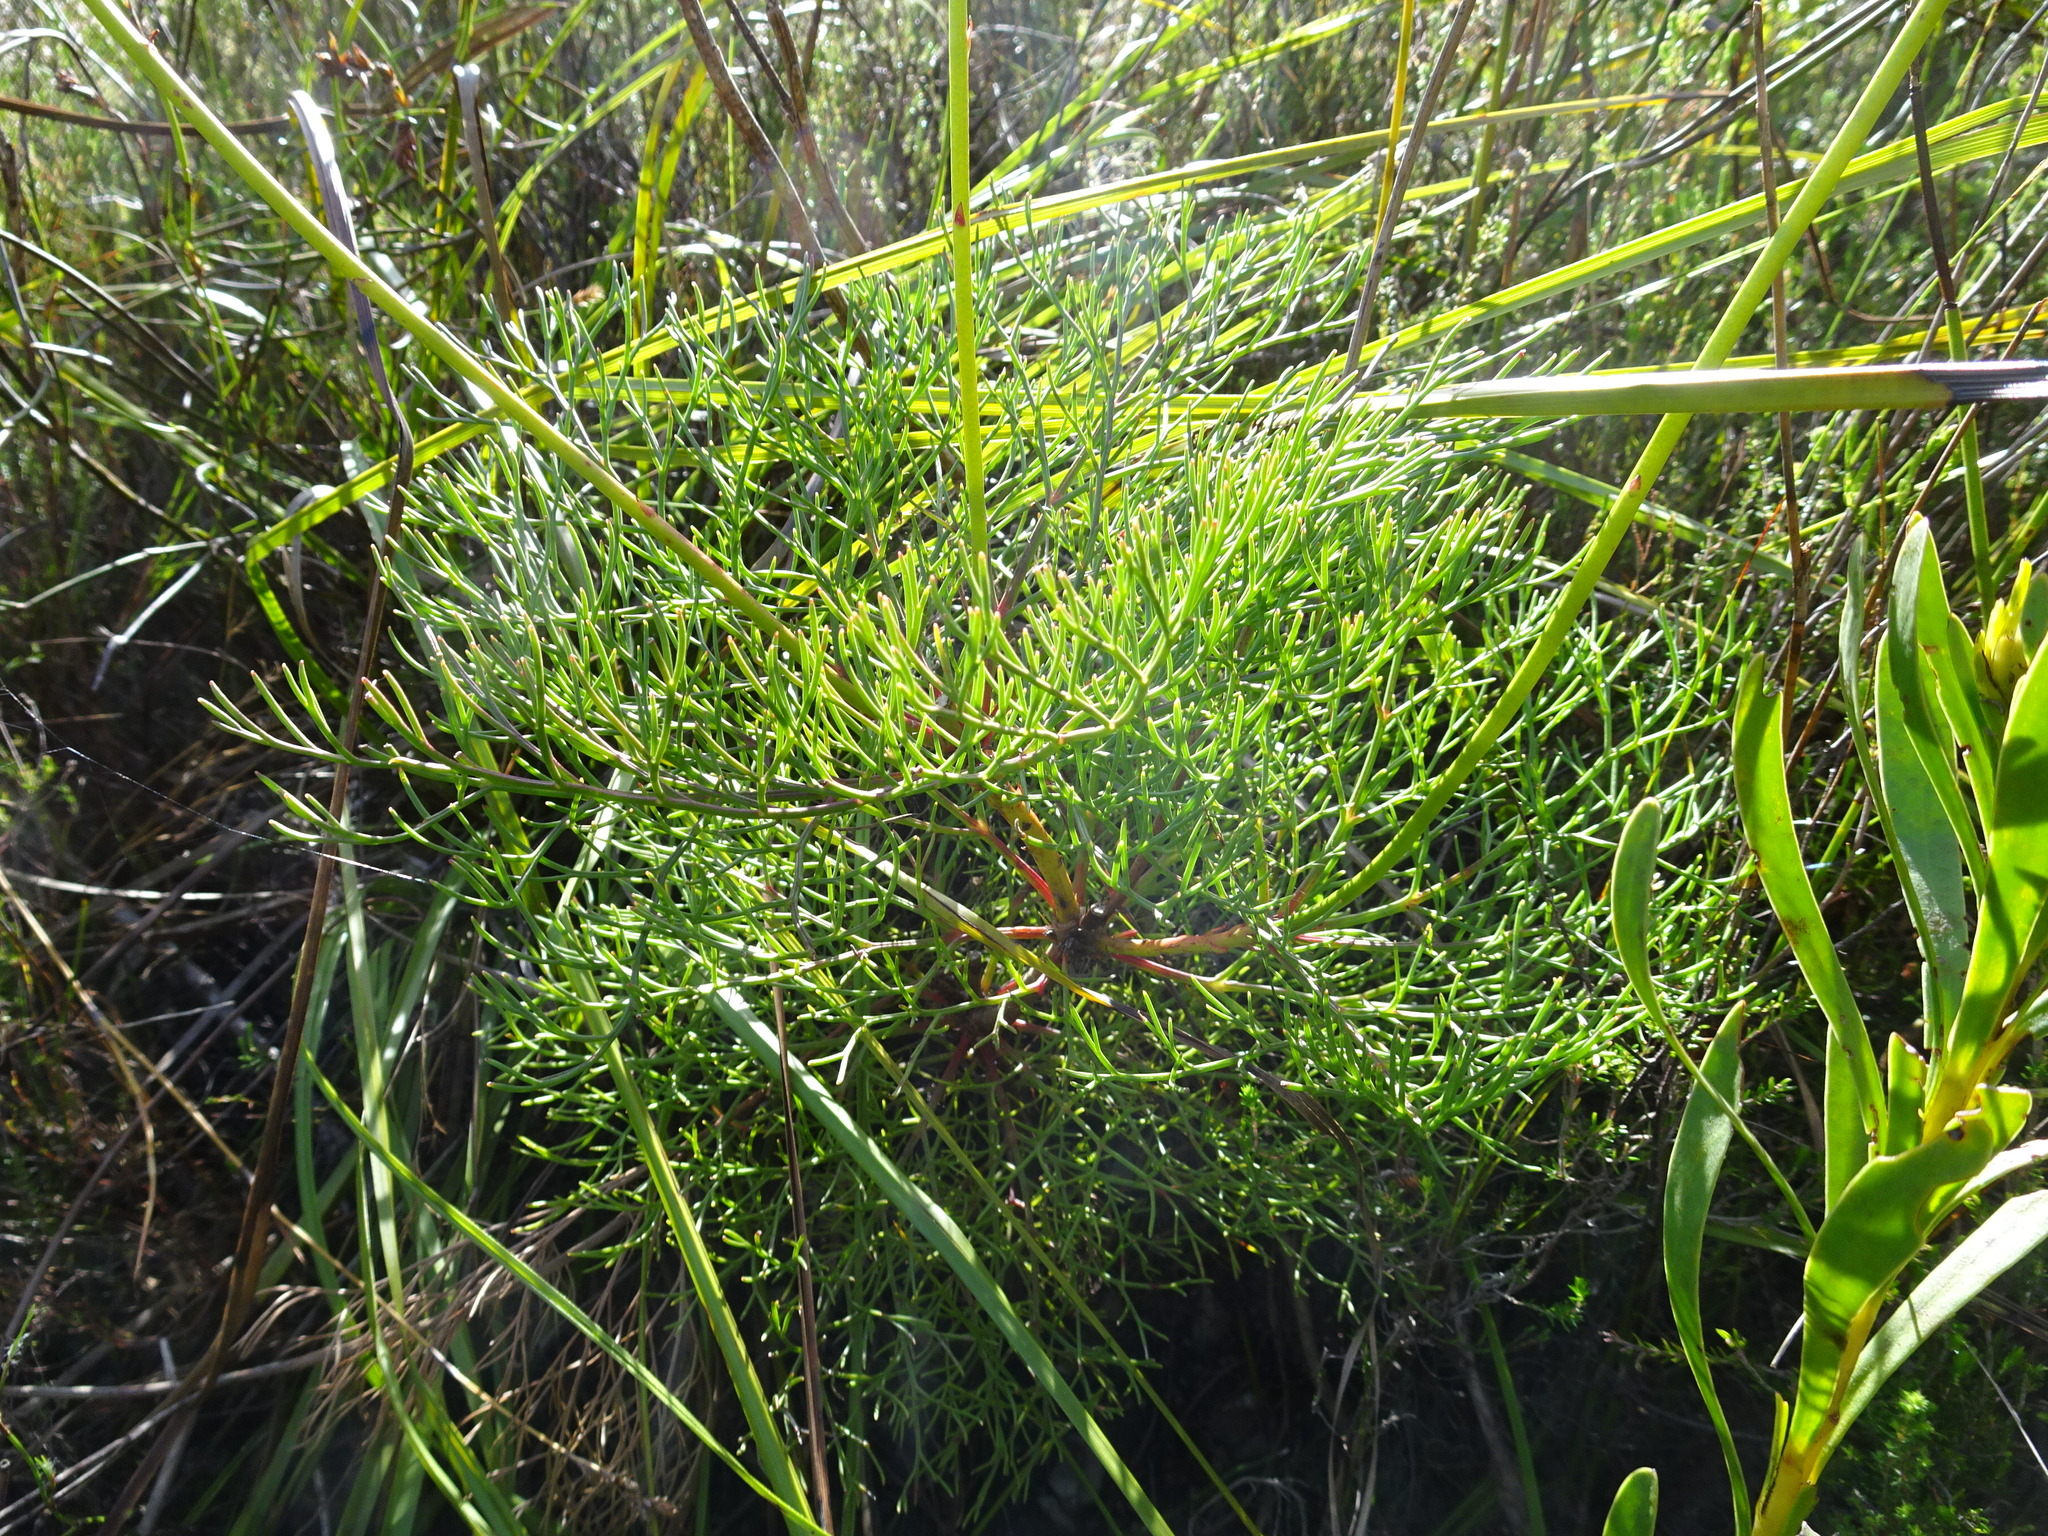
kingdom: Plantae
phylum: Tracheophyta
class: Magnoliopsida
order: Proteales
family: Proteaceae
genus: Serruria
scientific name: Serruria elongata
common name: Long-stalk spiderhead
